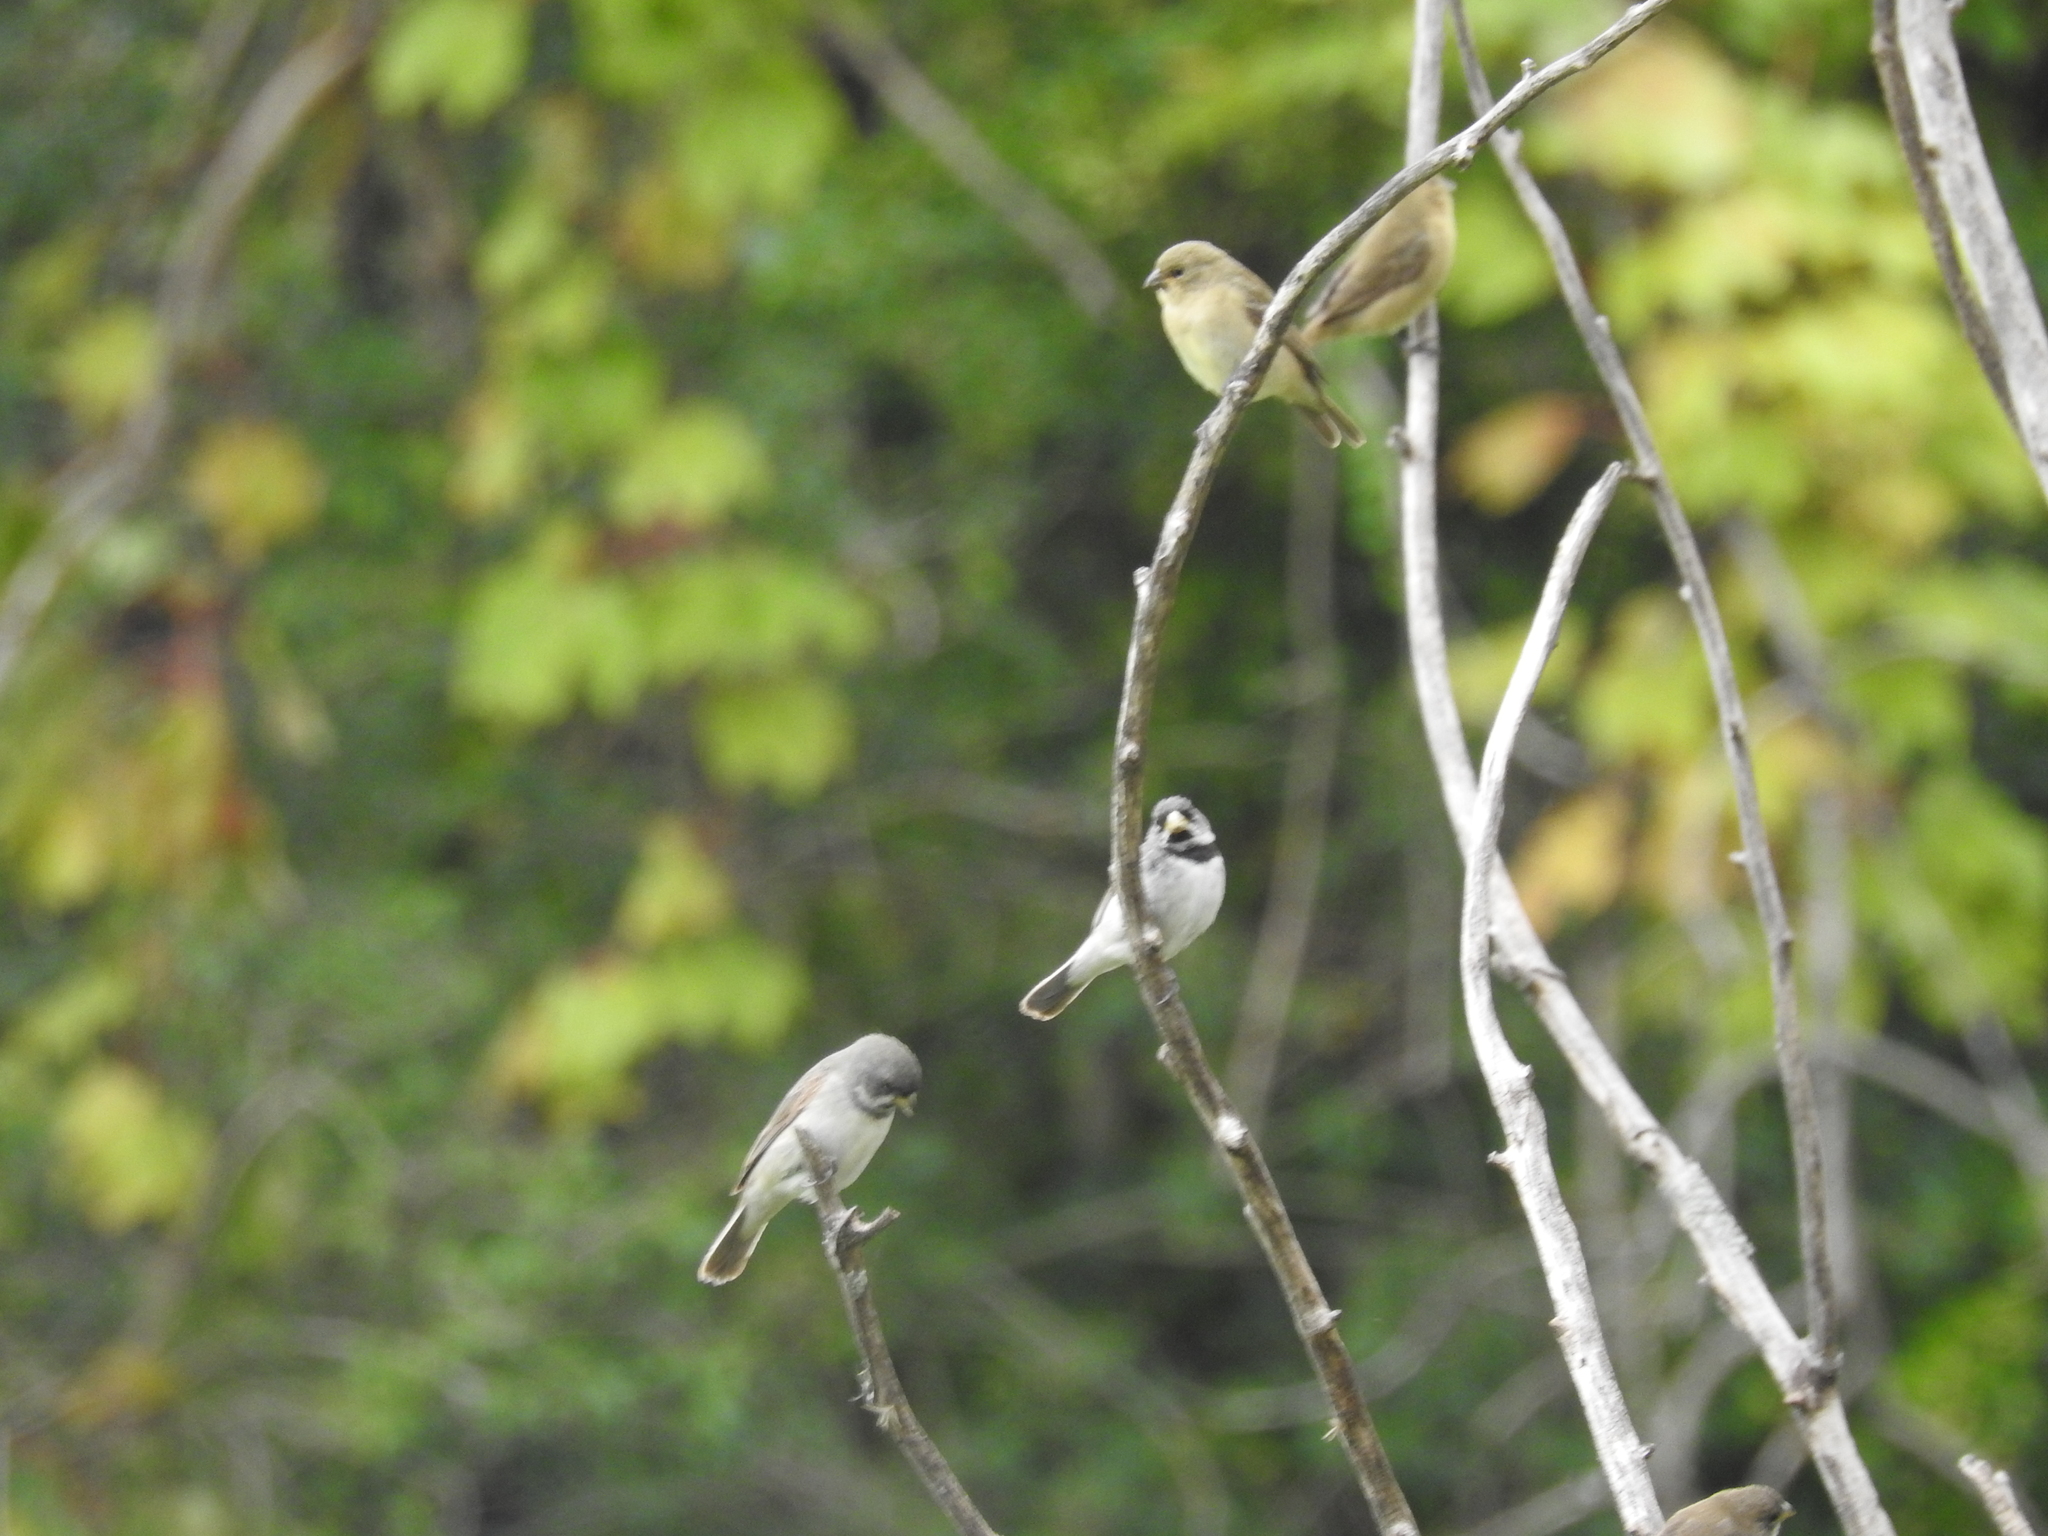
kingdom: Animalia
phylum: Chordata
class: Aves
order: Passeriformes
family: Thraupidae
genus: Sporophila
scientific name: Sporophila caerulescens
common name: Double-collared seedeater
